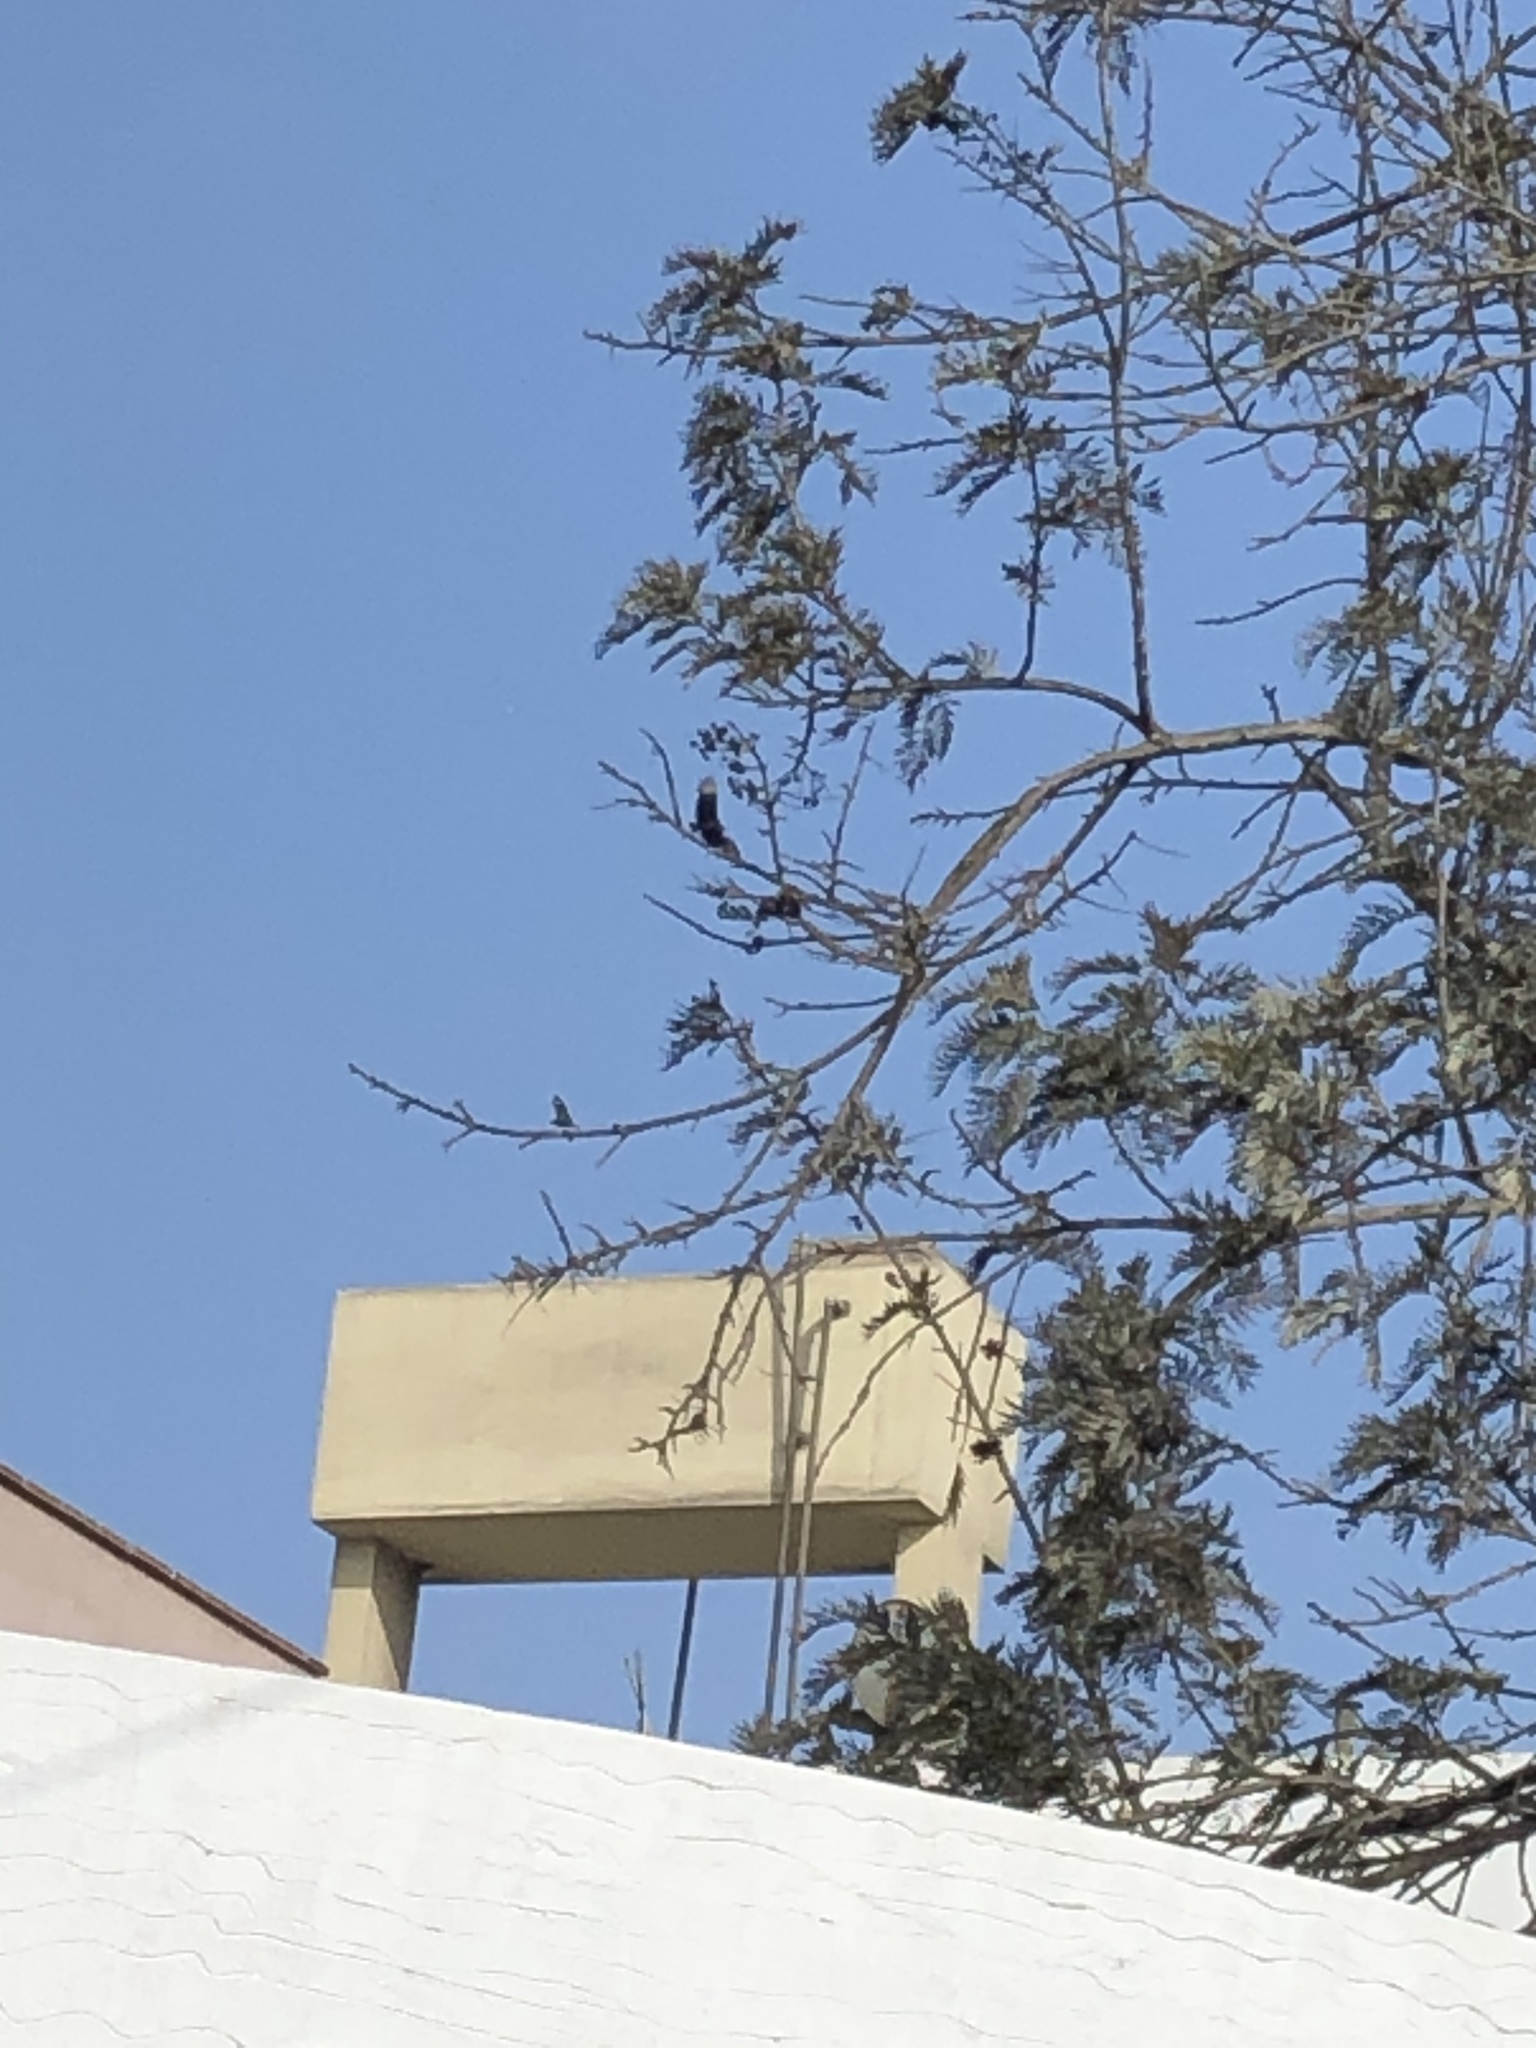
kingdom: Animalia
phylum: Chordata
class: Aves
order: Accipitriformes
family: Cathartidae
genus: Coragyps
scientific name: Coragyps atratus
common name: Black vulture
